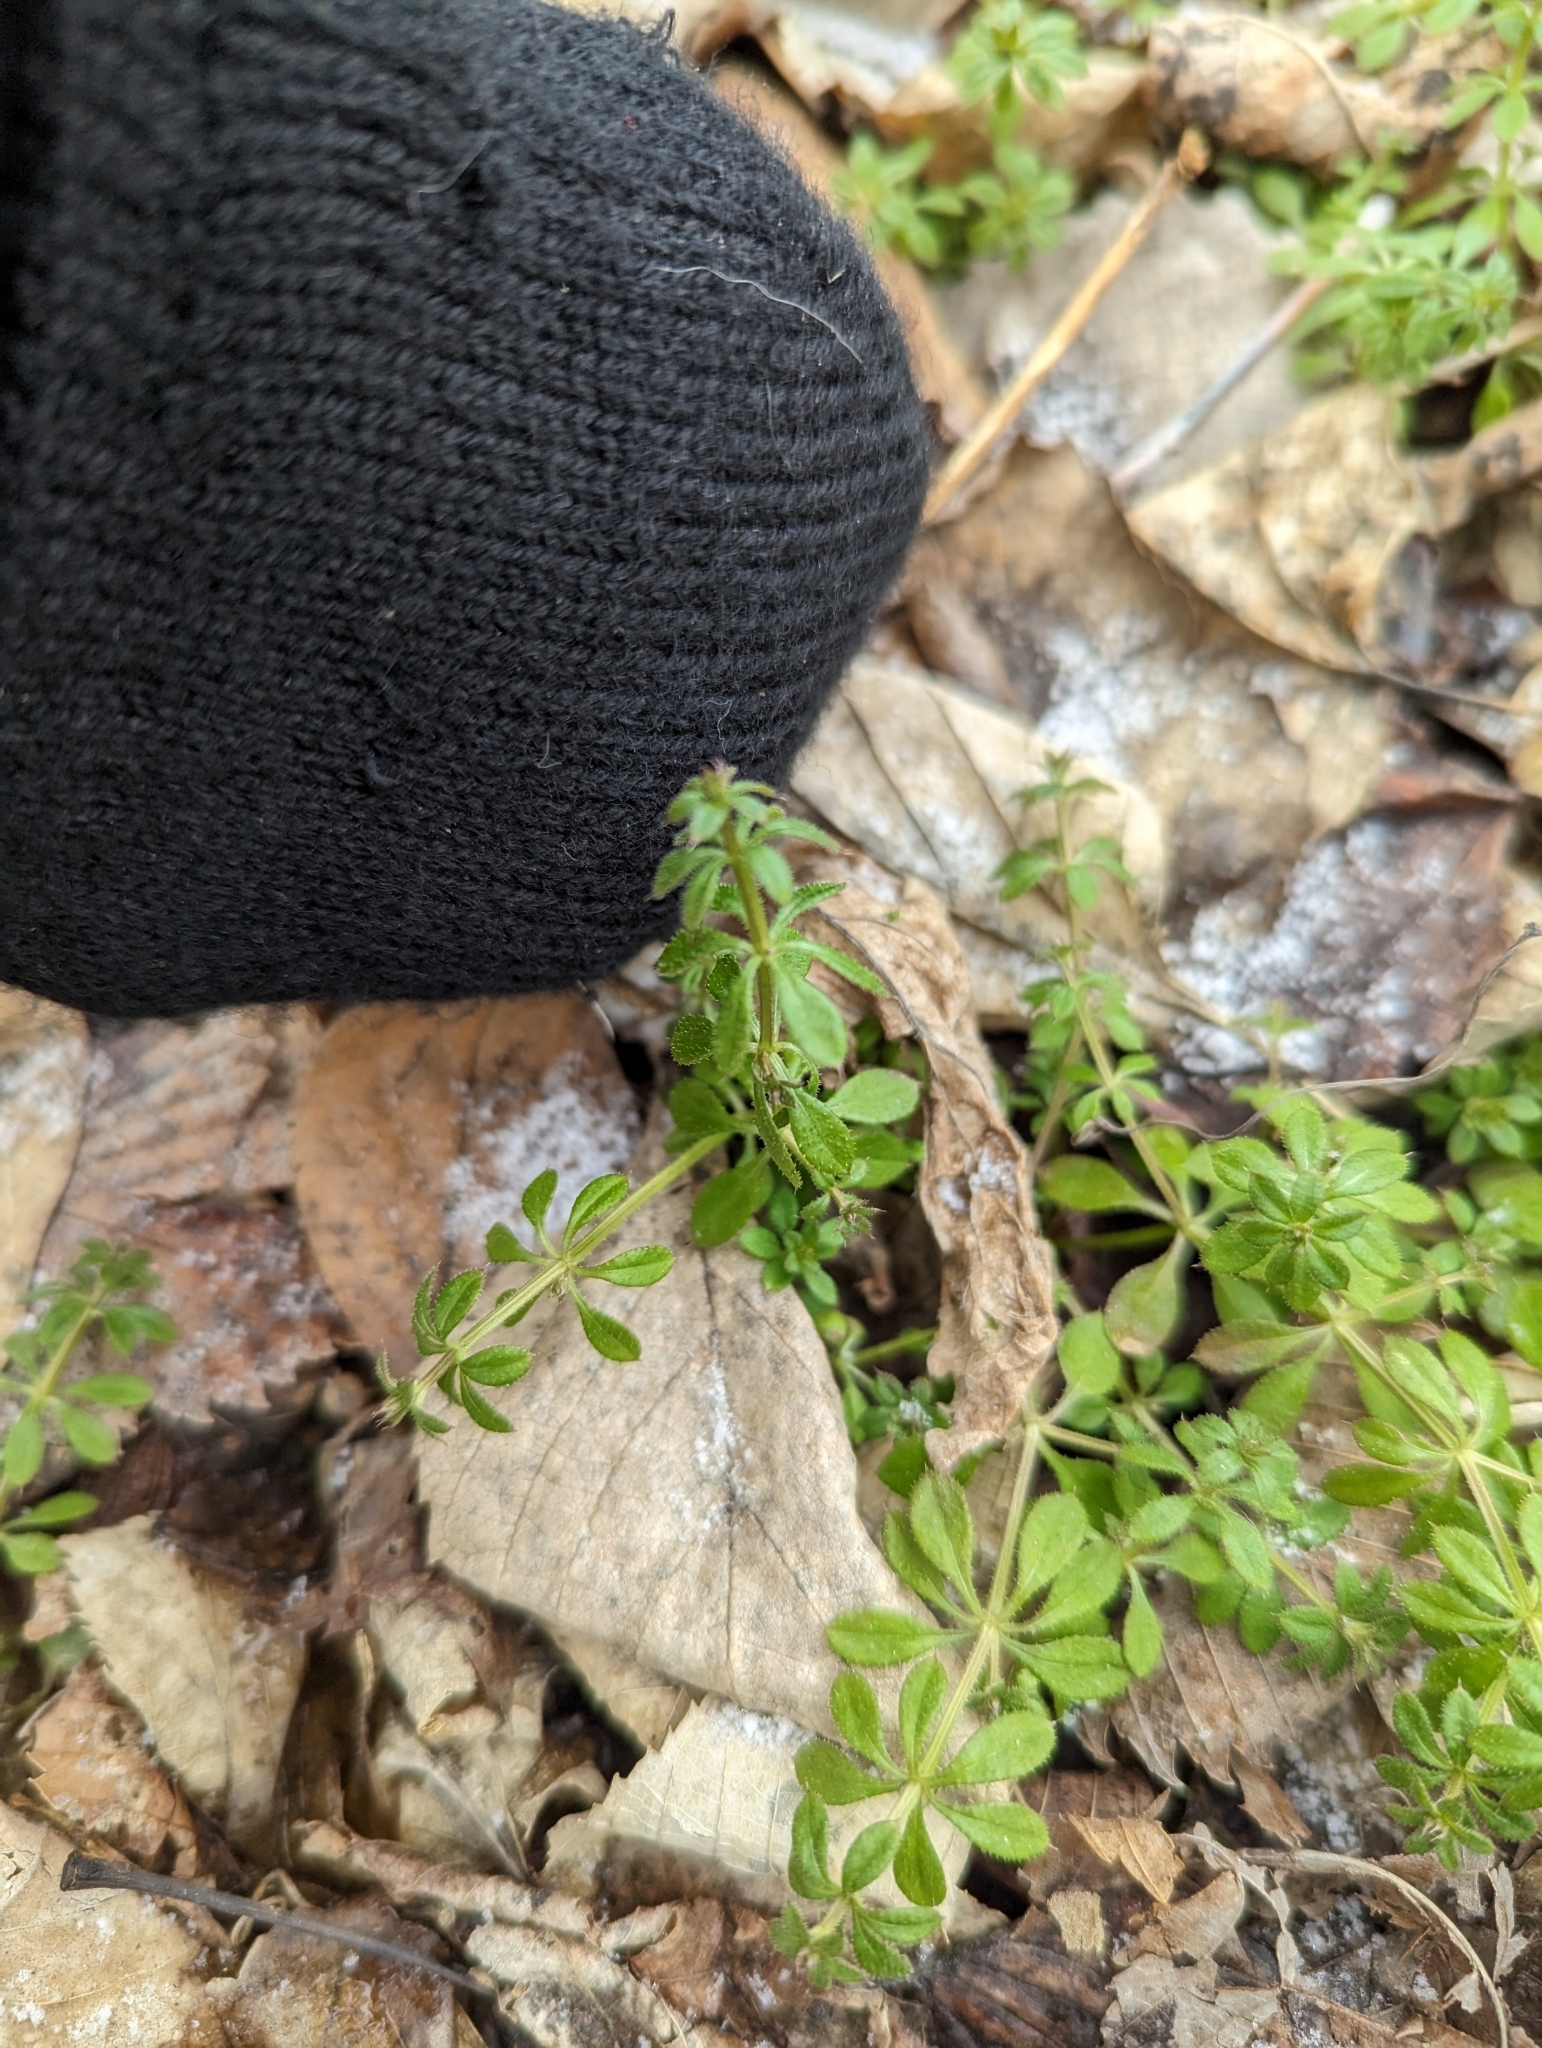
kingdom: Plantae
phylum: Tracheophyta
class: Magnoliopsida
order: Gentianales
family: Rubiaceae
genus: Galium
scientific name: Galium aparine
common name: Cleavers
